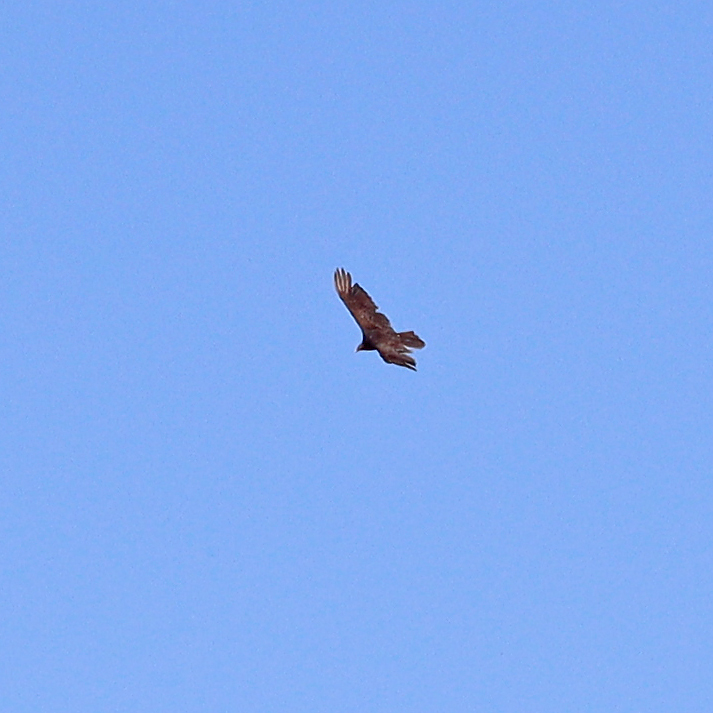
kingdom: Animalia
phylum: Chordata
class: Aves
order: Accipitriformes
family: Cathartidae
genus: Cathartes
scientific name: Cathartes aura
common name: Turkey vulture
